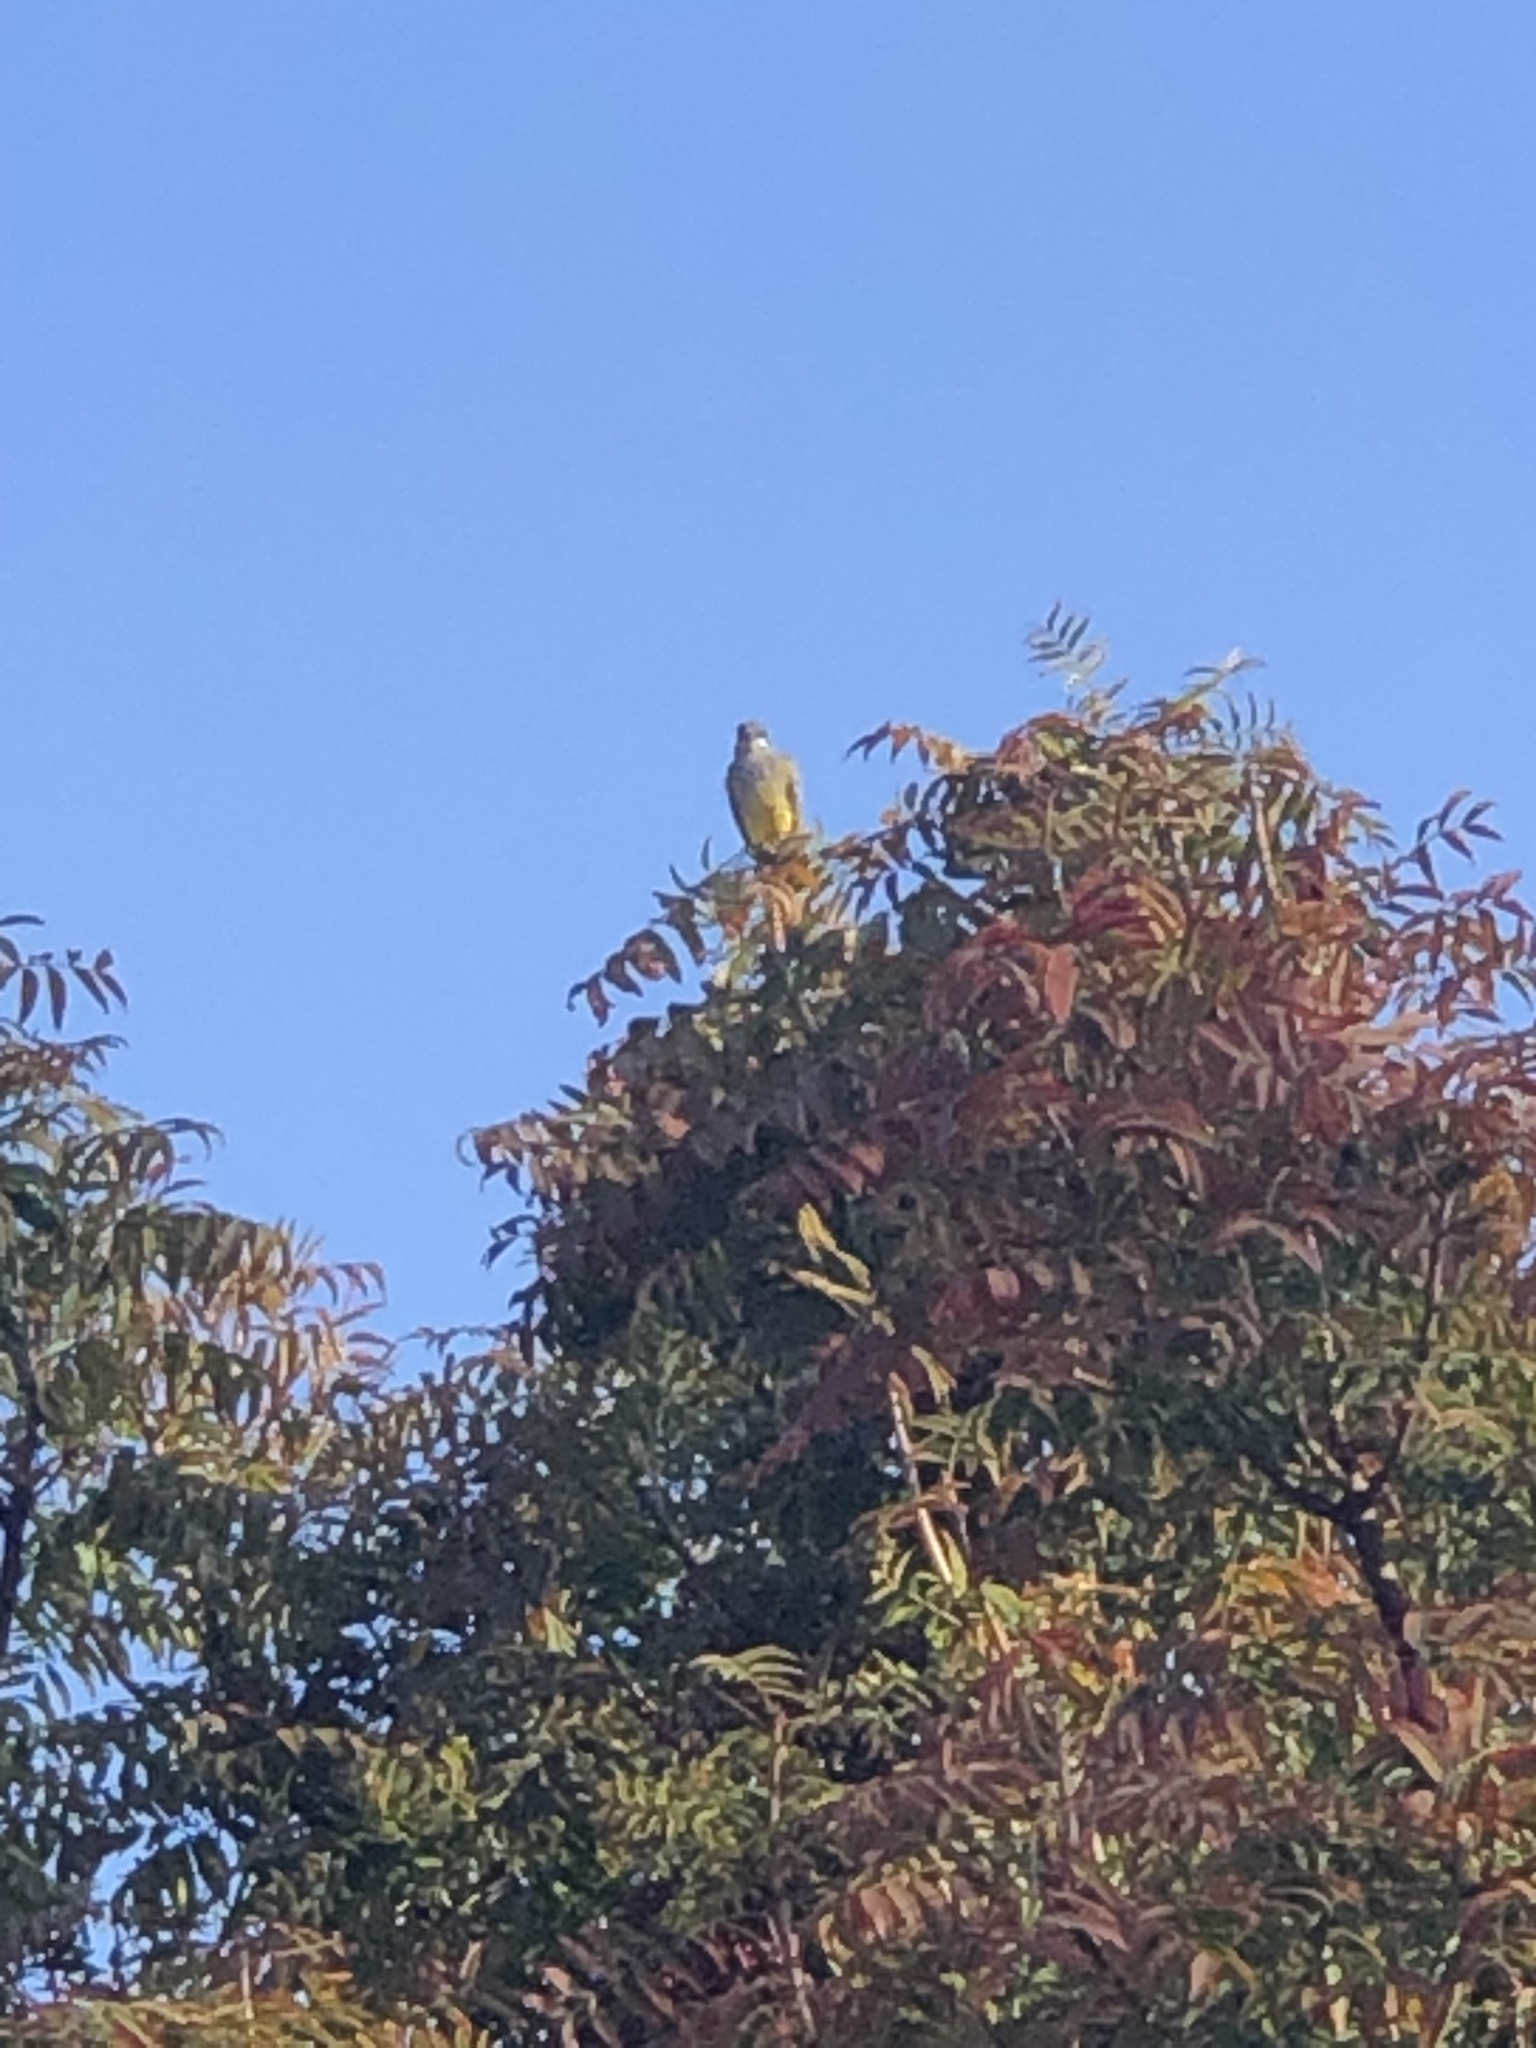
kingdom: Animalia
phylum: Chordata
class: Aves
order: Passeriformes
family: Tyrannidae
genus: Tyrannus
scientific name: Tyrannus vociferans
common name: Cassin's kingbird
